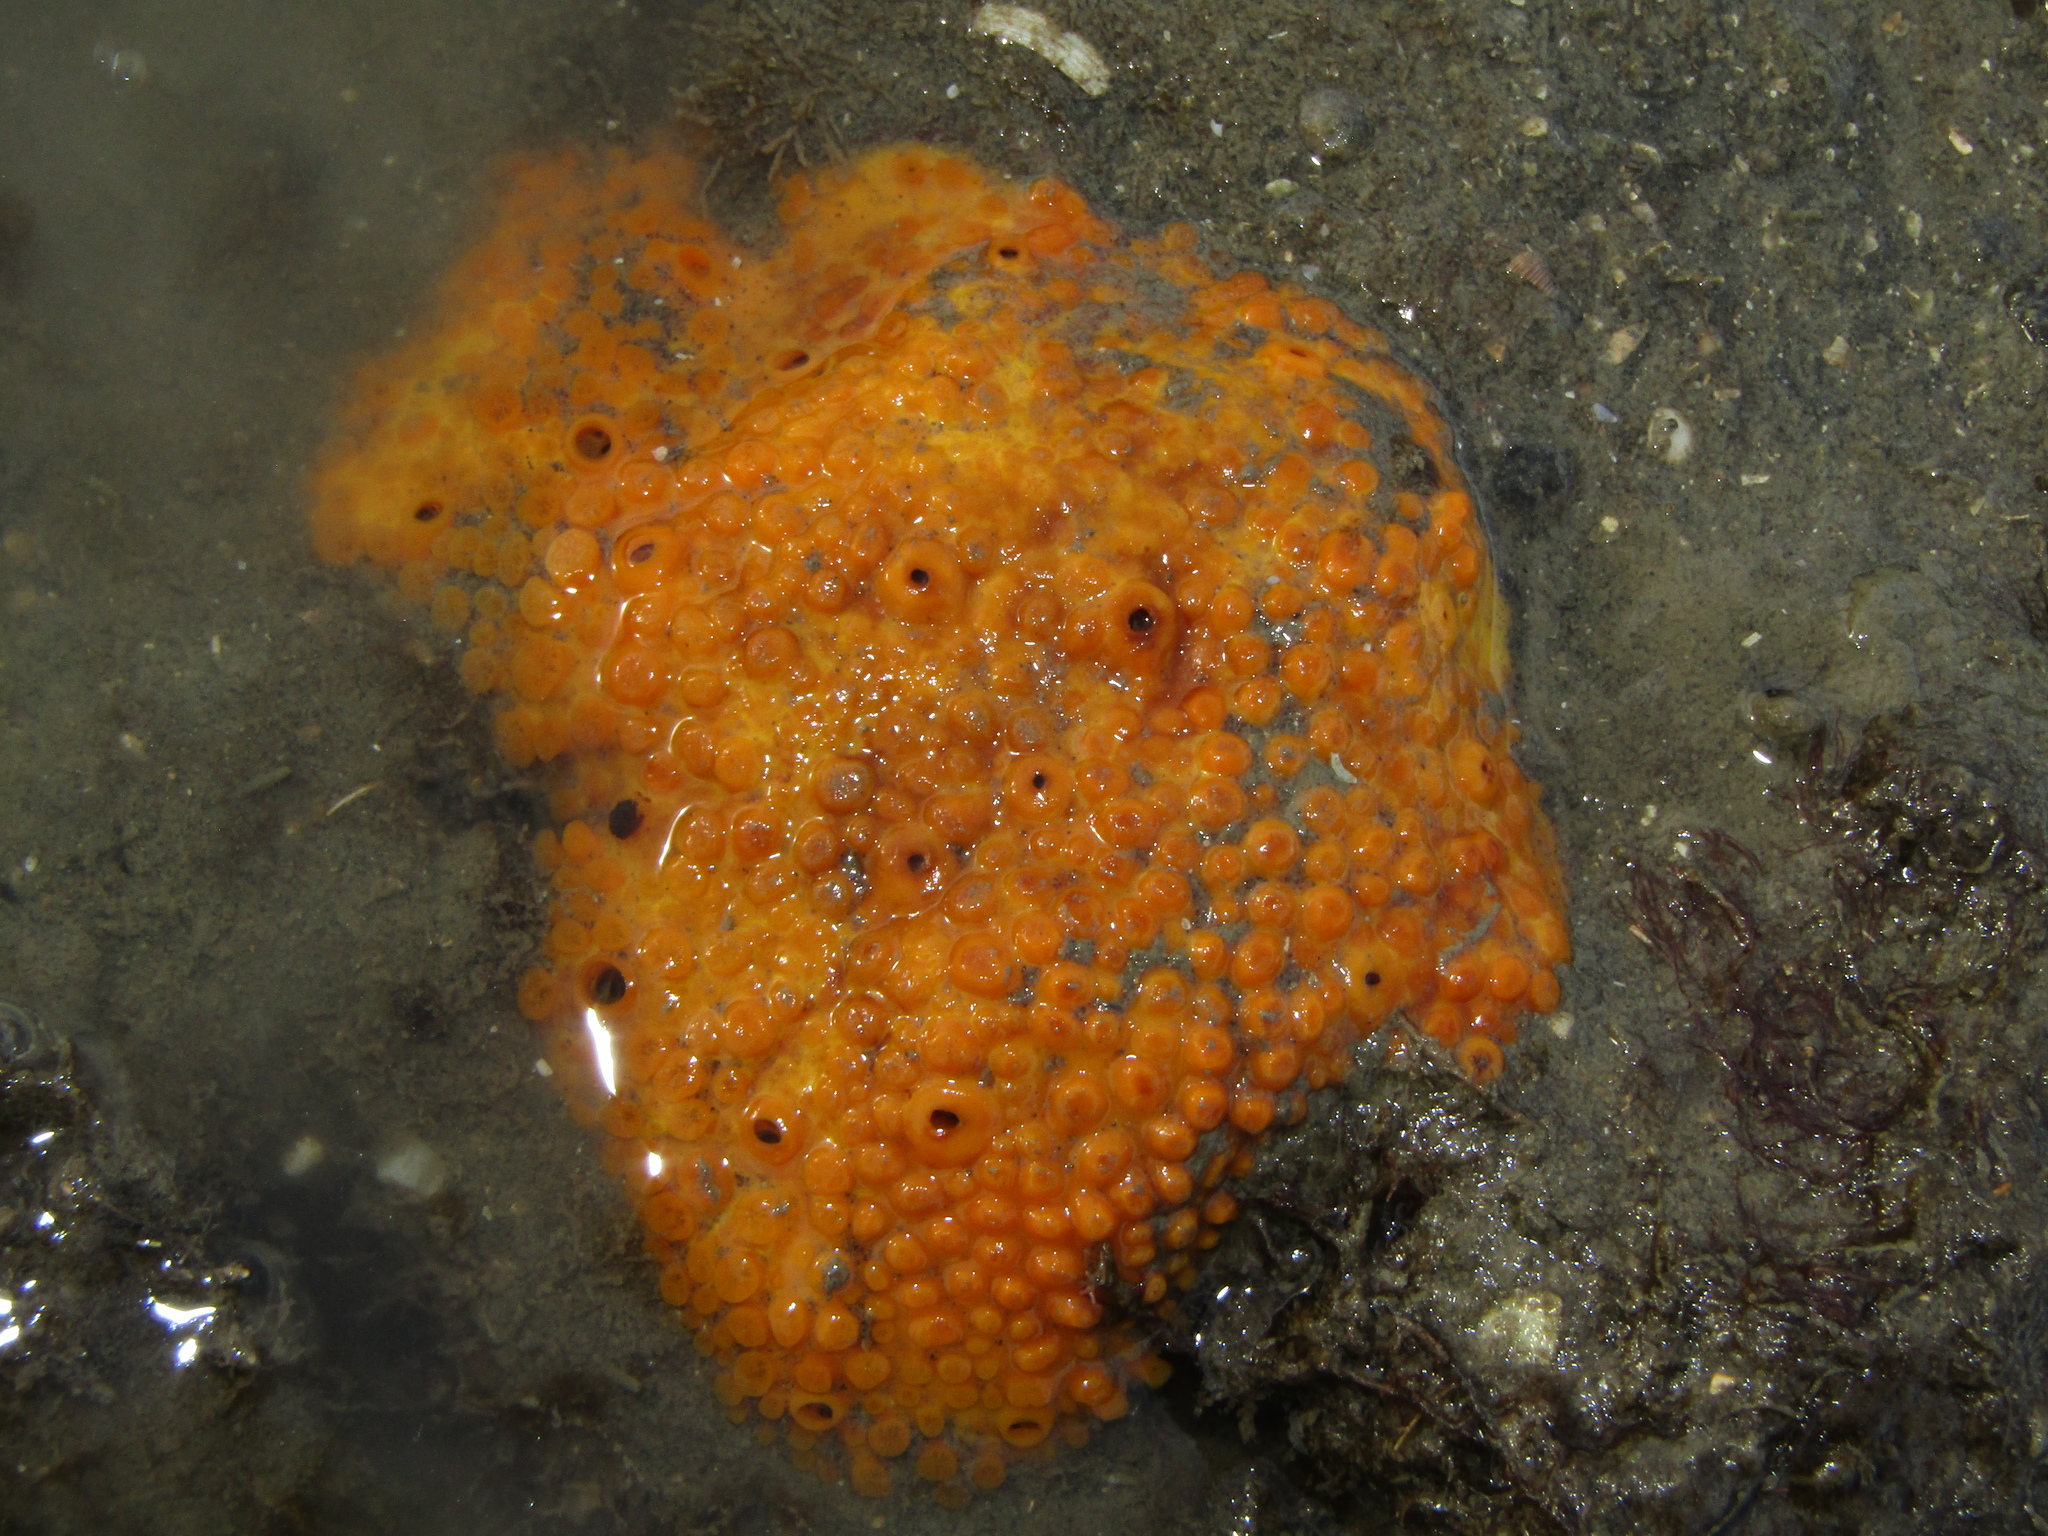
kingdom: Animalia
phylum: Porifera
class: Demospongiae
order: Clionaida
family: Clionaidae
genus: Cliona
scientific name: Cliona celata
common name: Boring sponge
